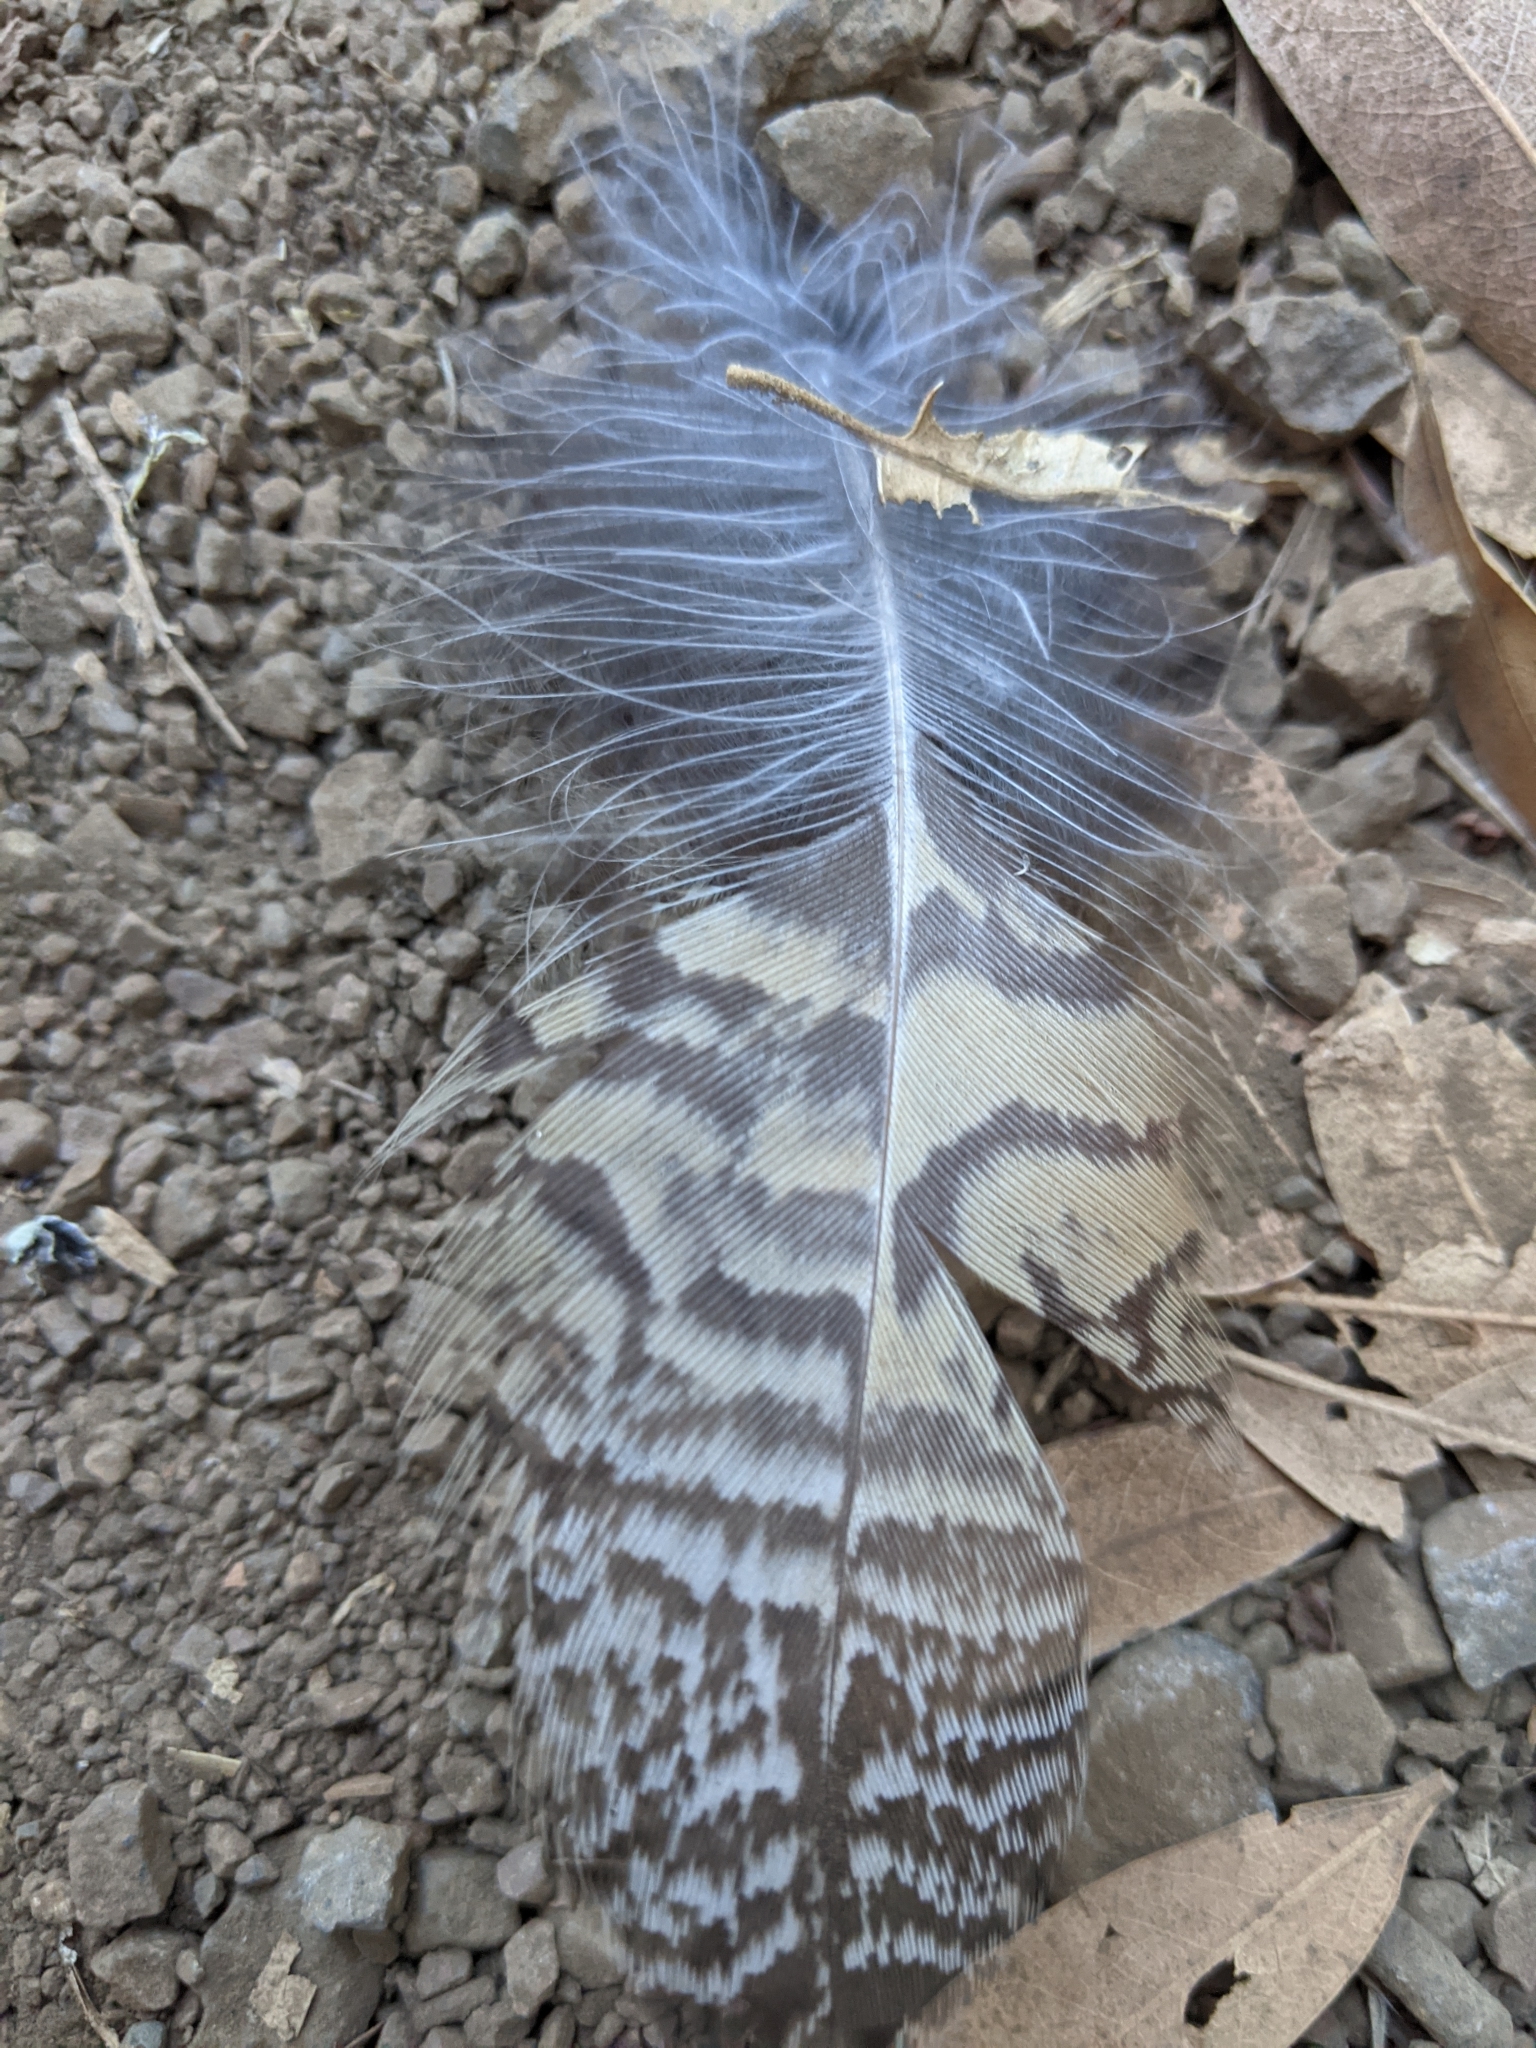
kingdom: Animalia
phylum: Chordata
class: Aves
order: Strigiformes
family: Strigidae
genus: Bubo
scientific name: Bubo virginianus
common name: Great horned owl
